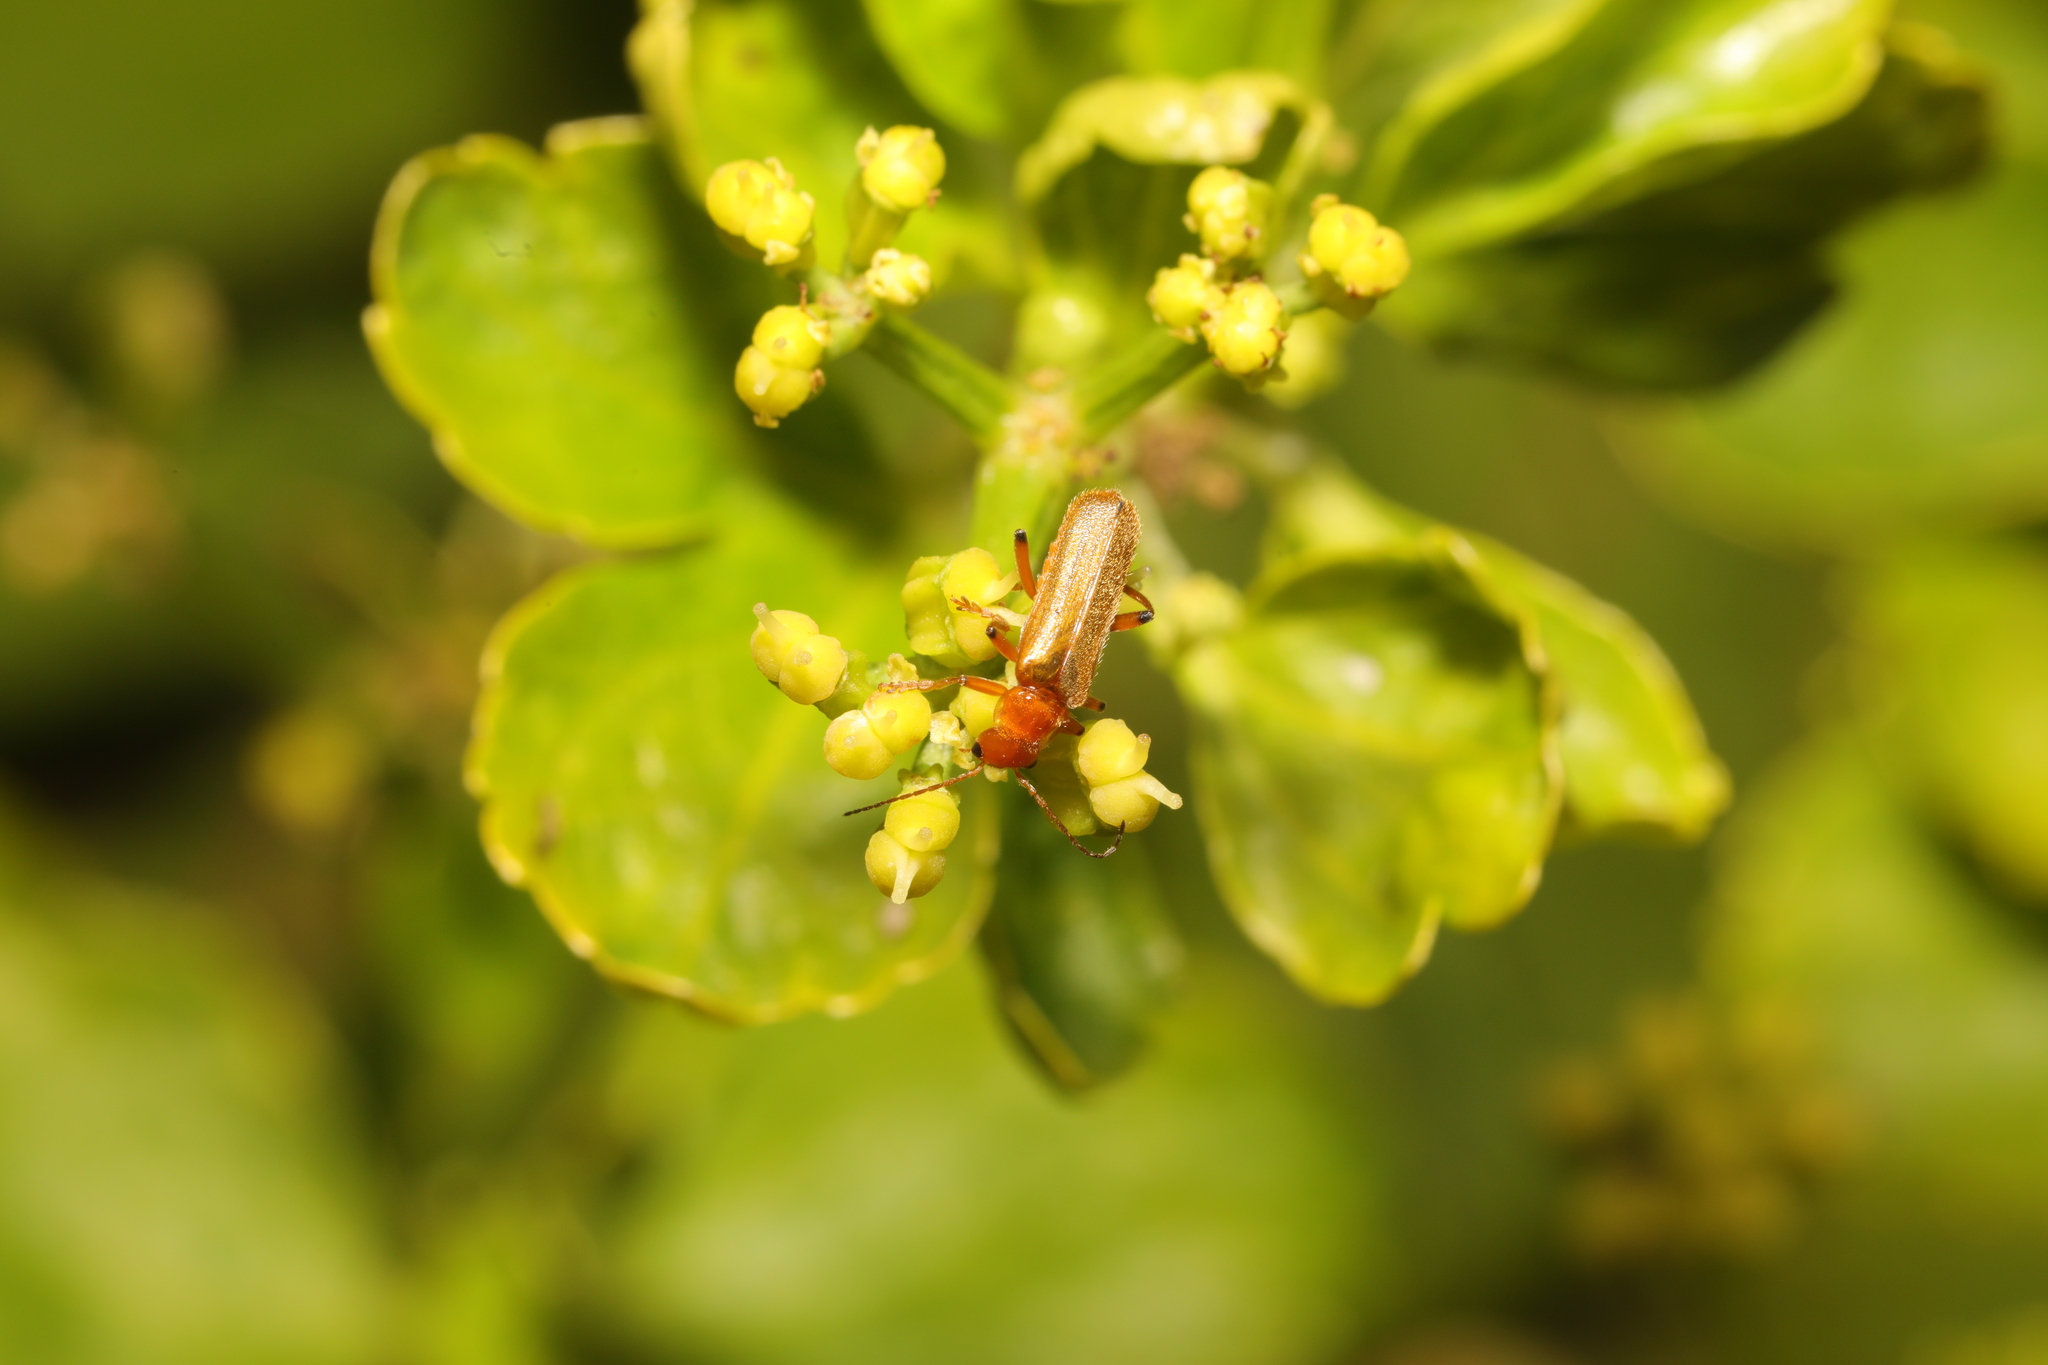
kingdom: Animalia
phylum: Arthropoda
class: Insecta
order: Coleoptera
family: Cantharidae
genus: Cantharis
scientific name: Cantharis cryptica
